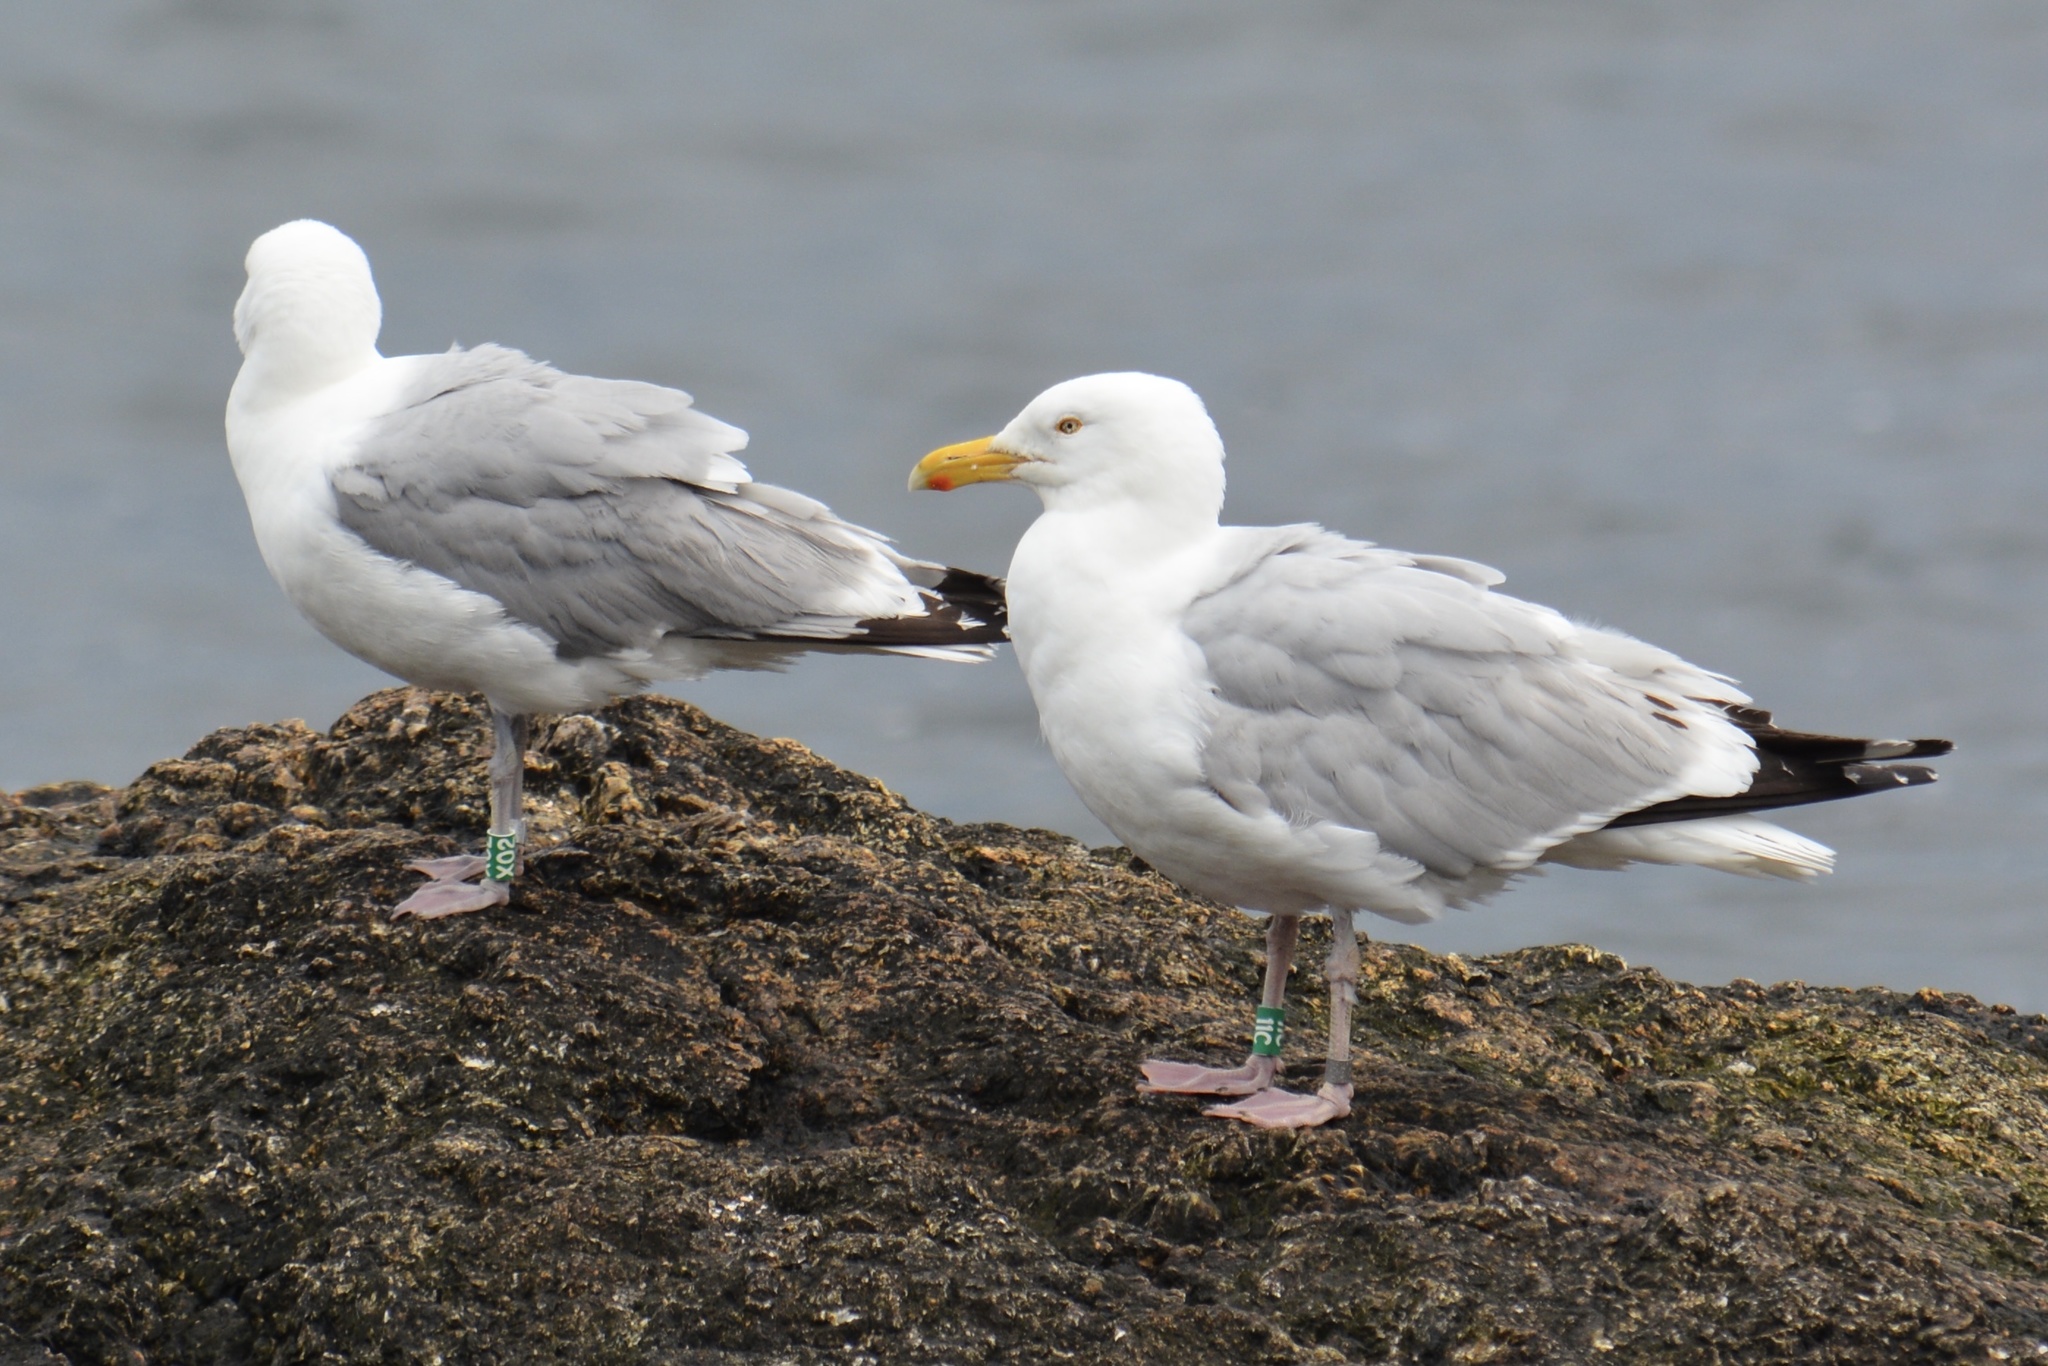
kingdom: Animalia
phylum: Chordata
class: Aves
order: Charadriiformes
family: Laridae
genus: Larus
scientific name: Larus argentatus
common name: Herring gull
